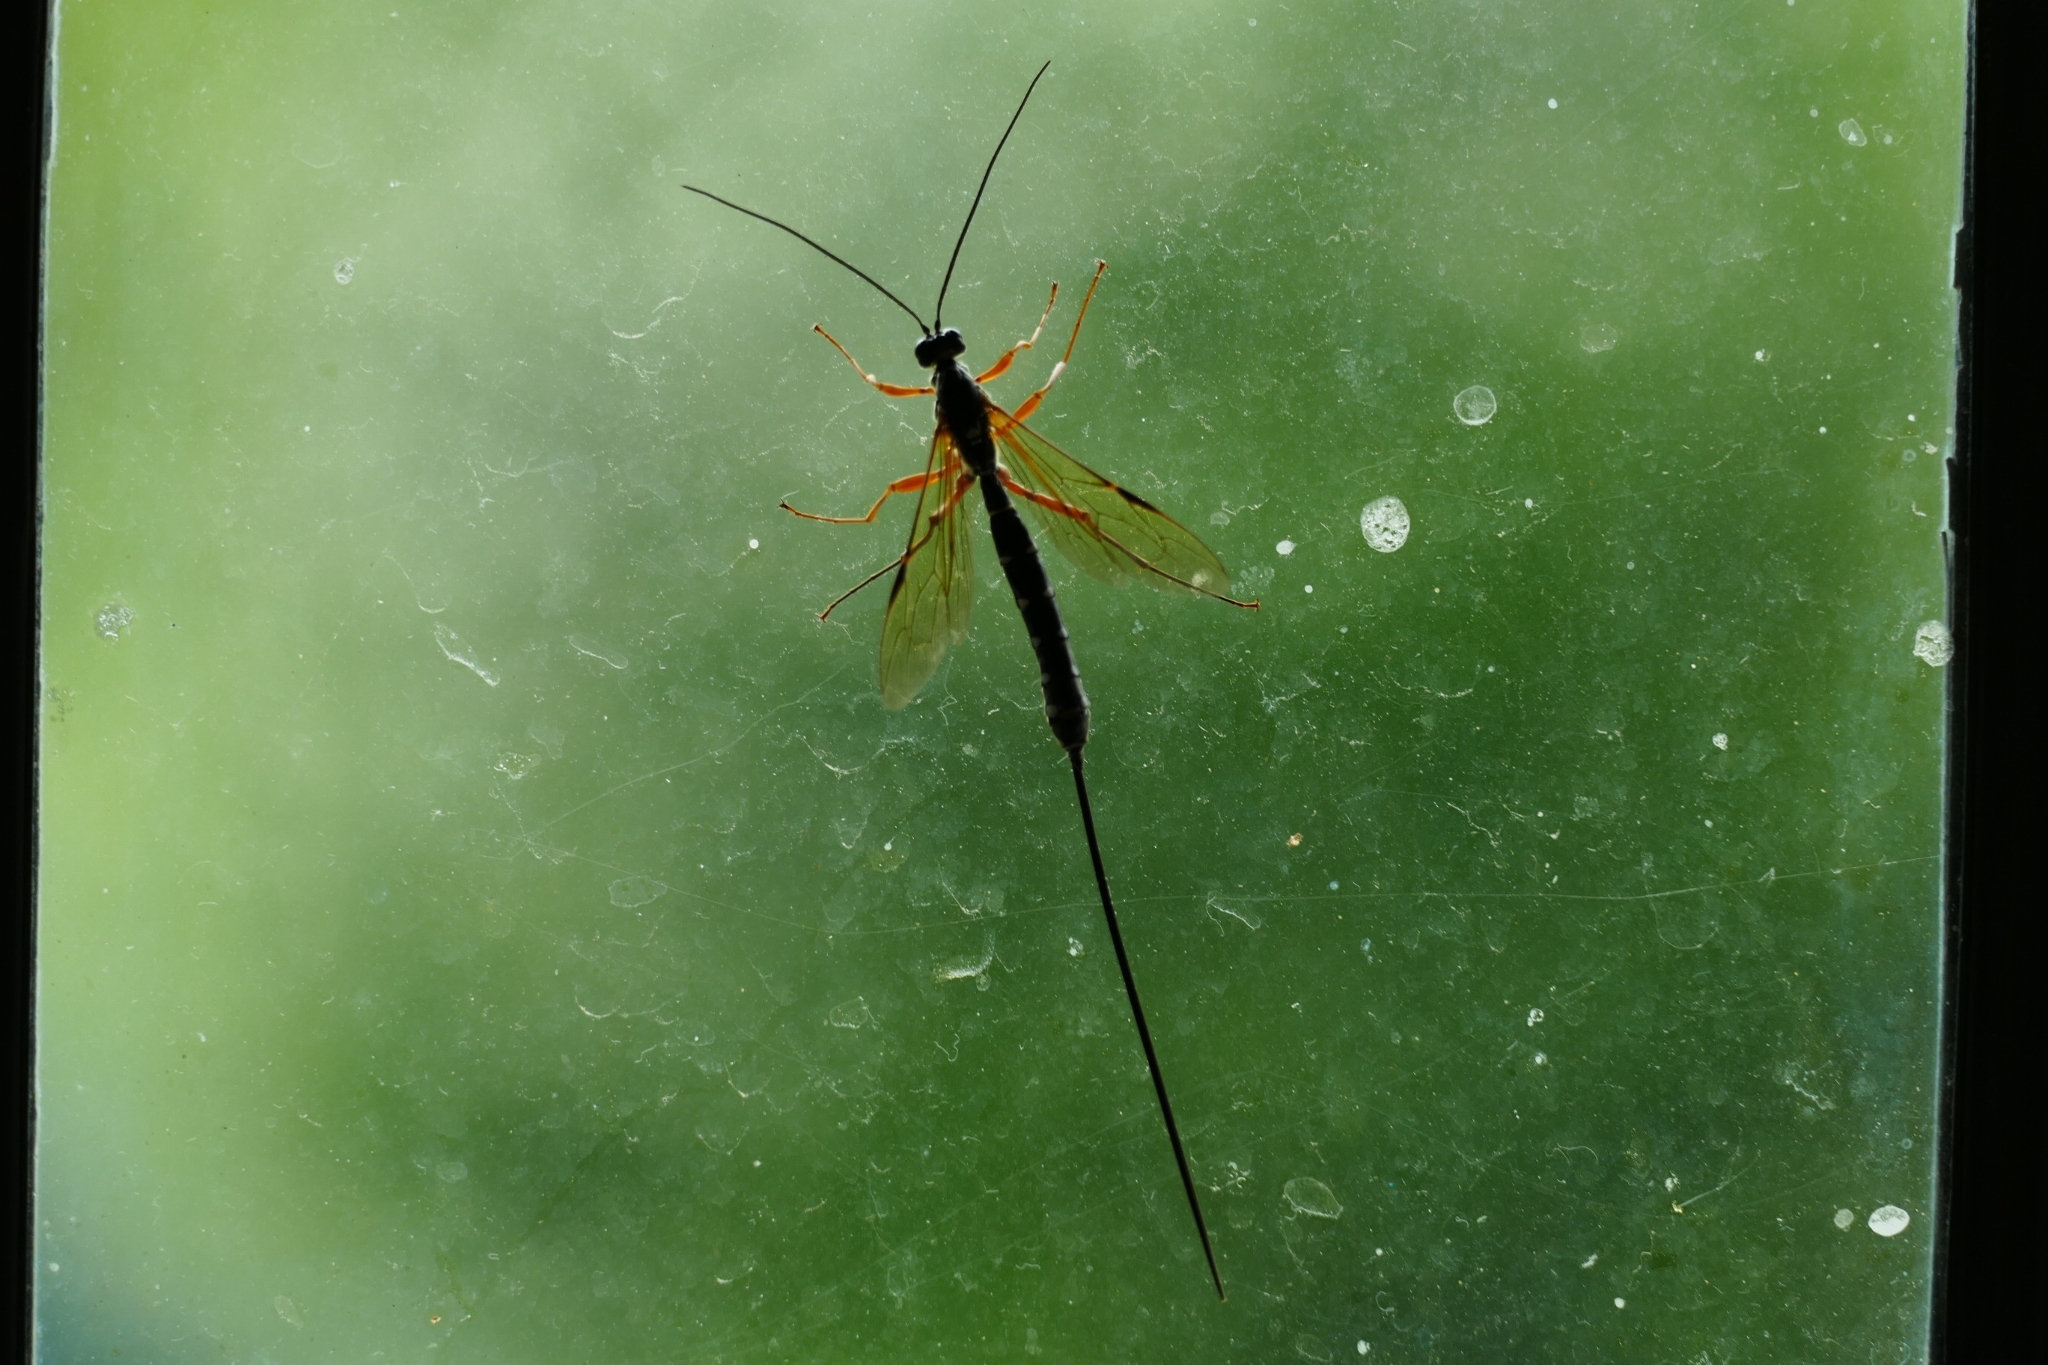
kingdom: Animalia
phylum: Arthropoda
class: Insecta
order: Hymenoptera
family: Ichneumonidae
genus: Rhyssa
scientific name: Rhyssa persuasoria
